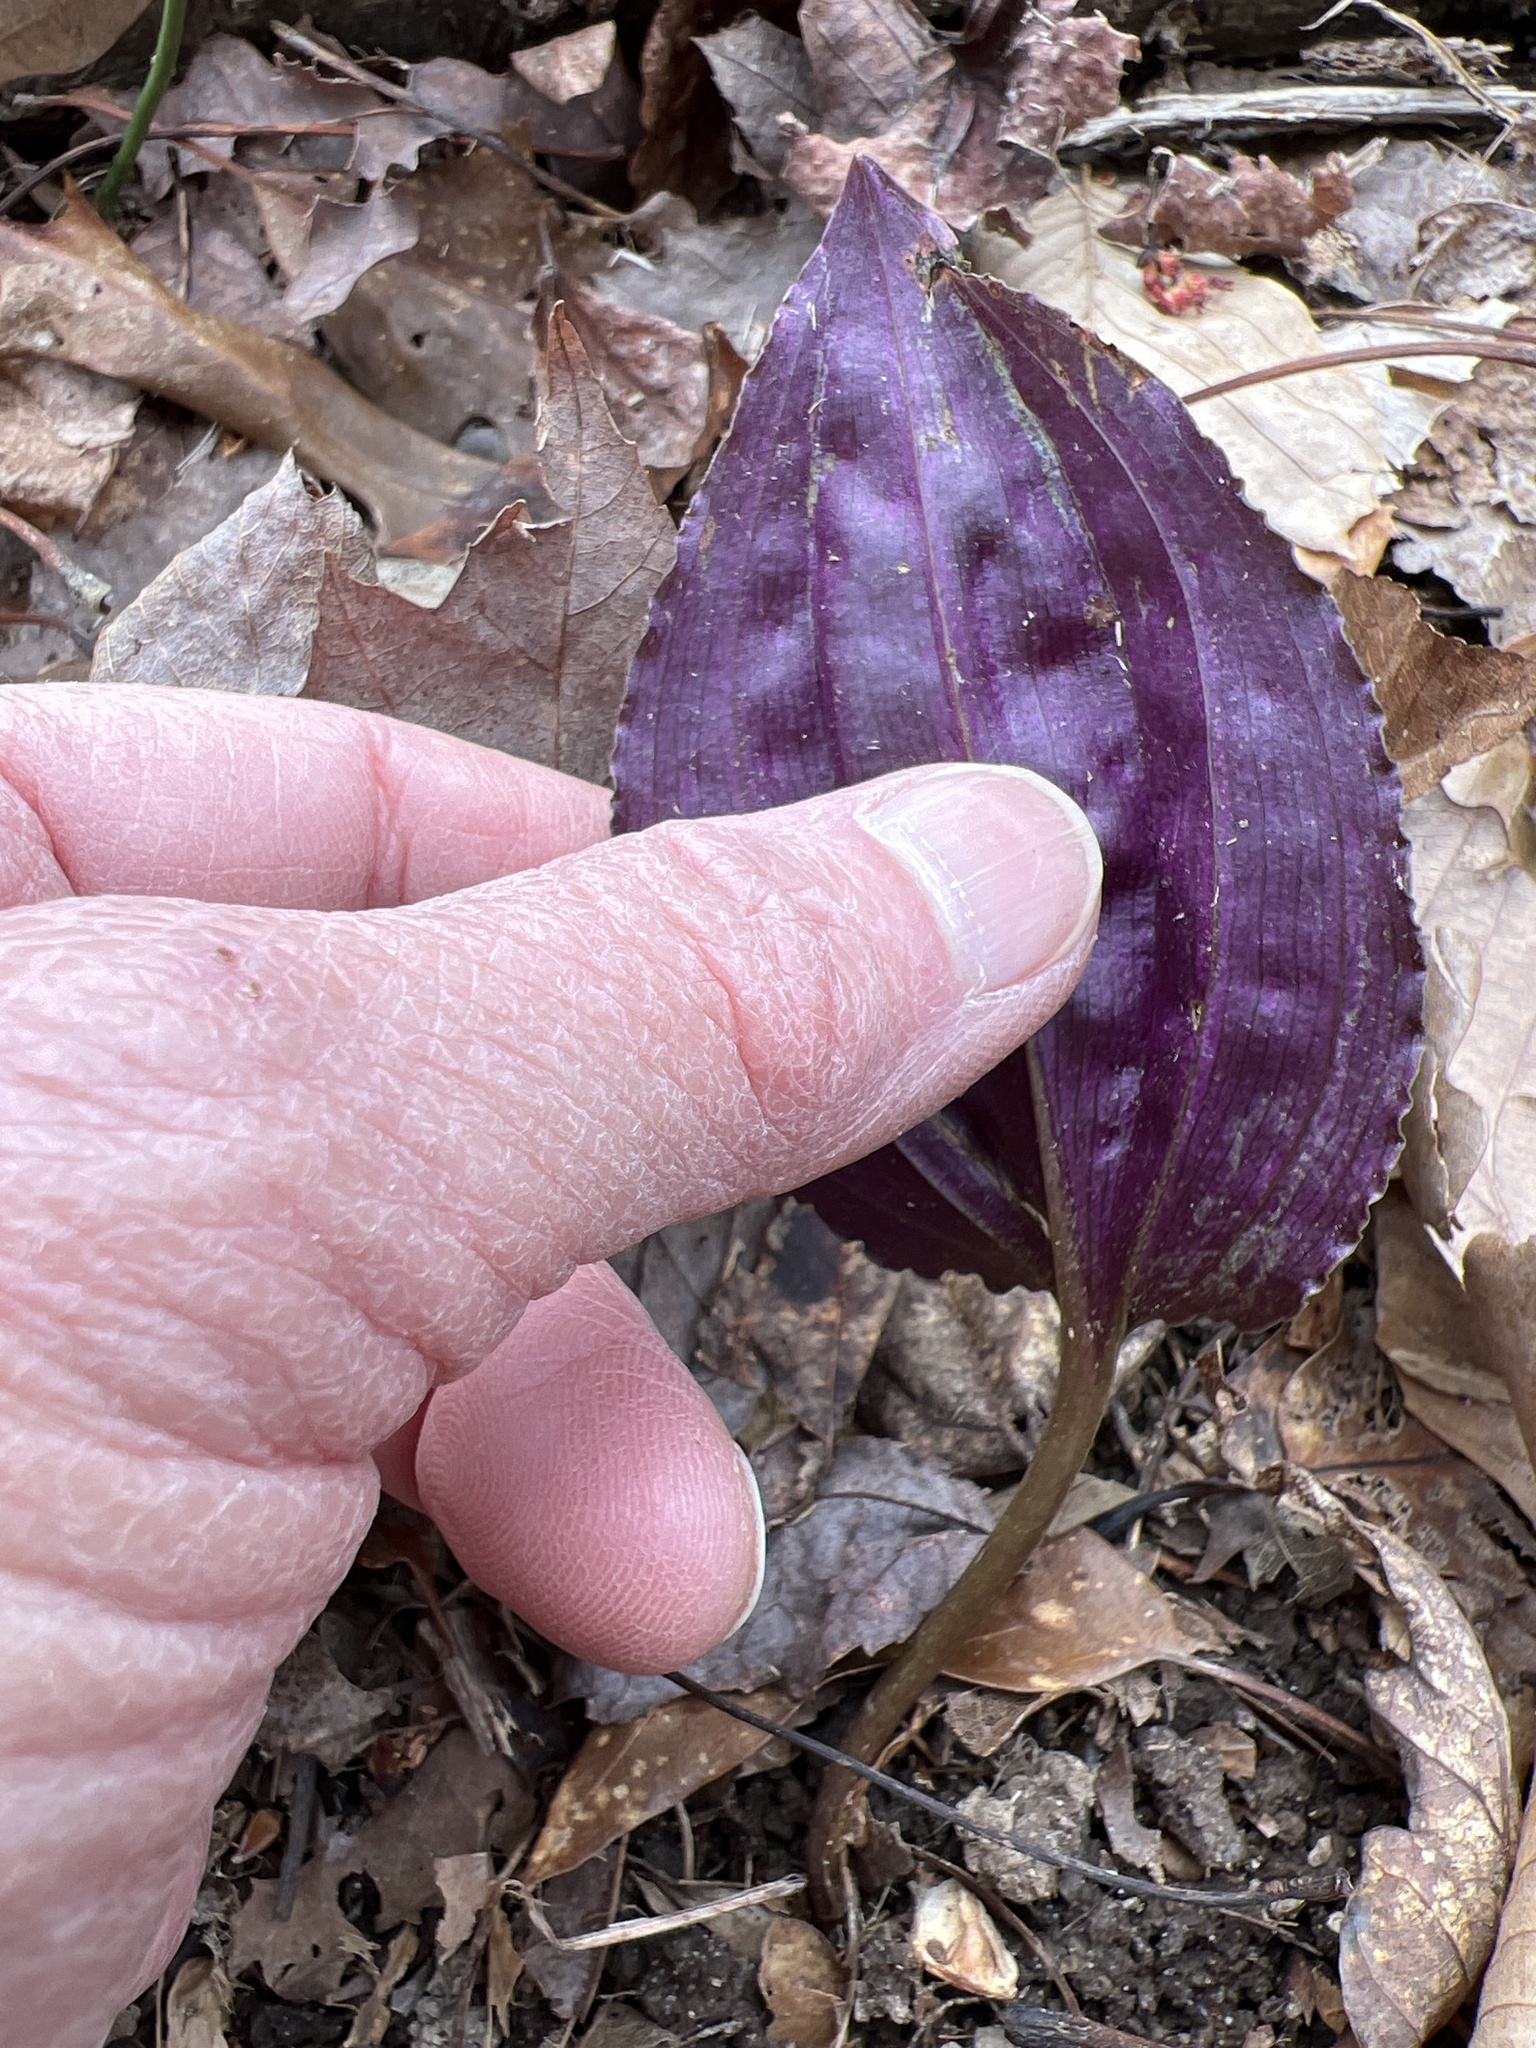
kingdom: Plantae
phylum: Tracheophyta
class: Liliopsida
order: Asparagales
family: Orchidaceae
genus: Tipularia
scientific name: Tipularia discolor
